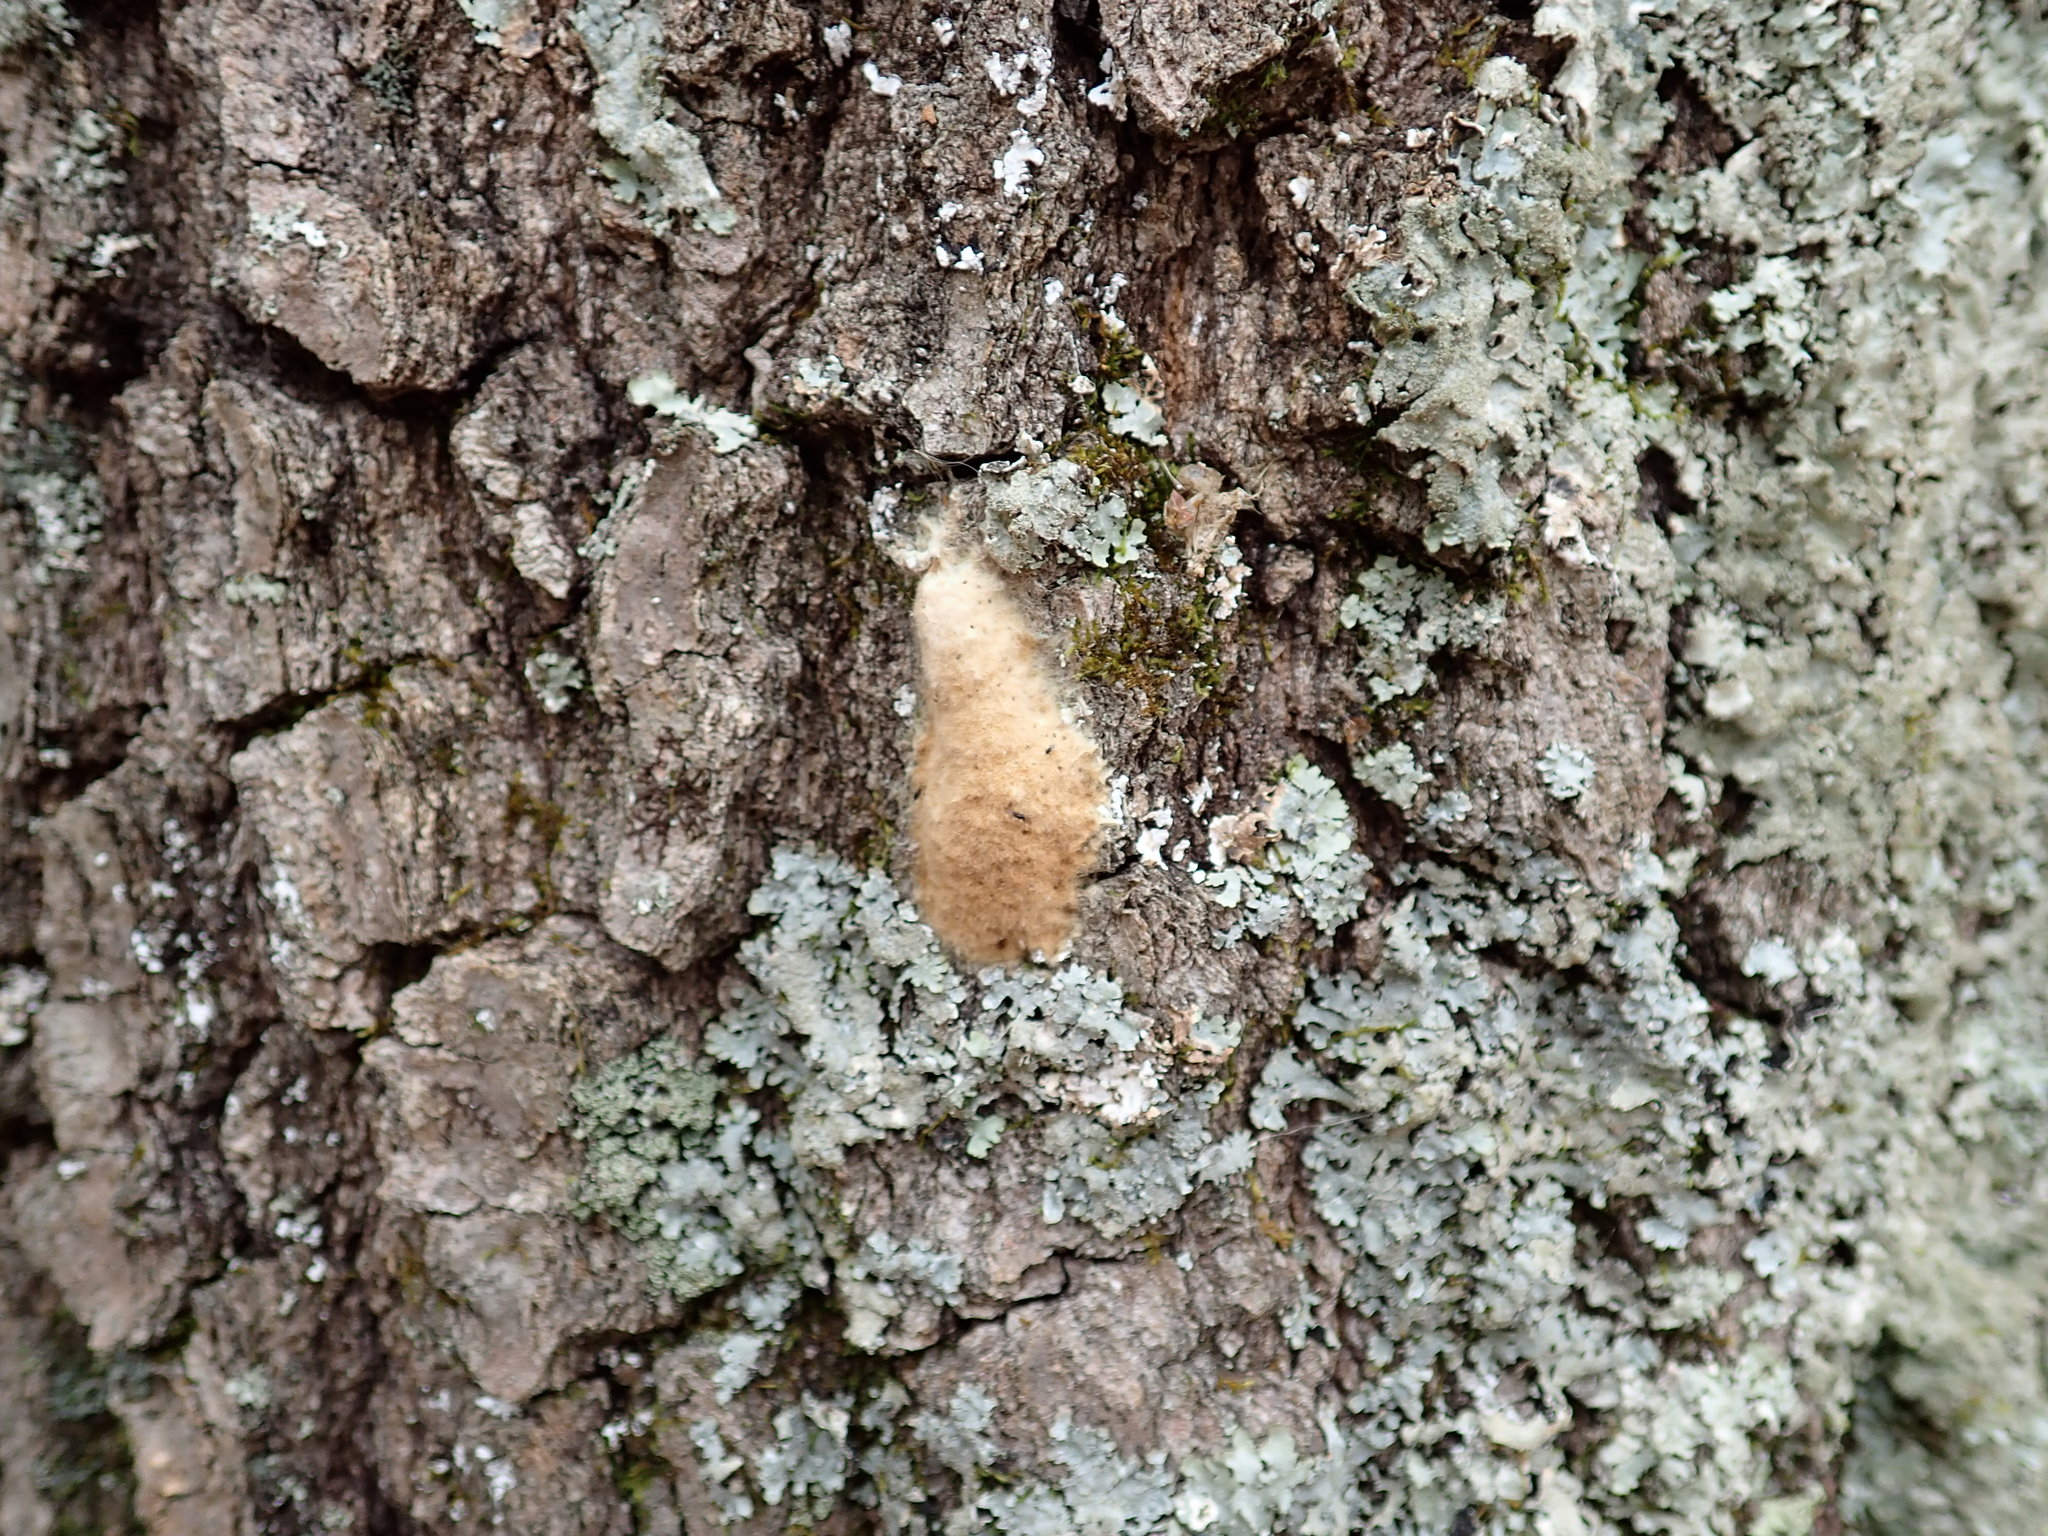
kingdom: Animalia
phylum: Arthropoda
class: Insecta
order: Lepidoptera
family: Erebidae
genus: Lymantria
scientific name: Lymantria dispar
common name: Gypsy moth
